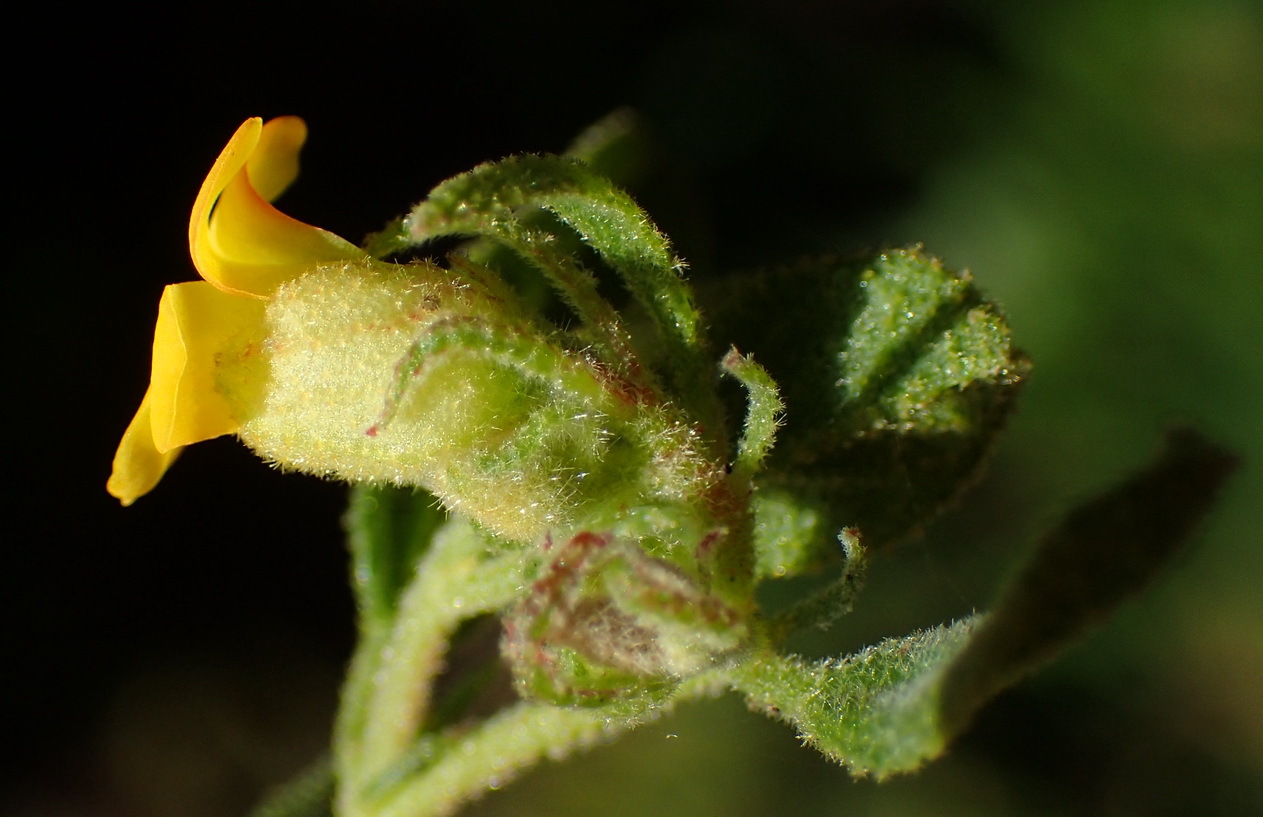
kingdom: Plantae
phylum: Tracheophyta
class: Magnoliopsida
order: Malvales
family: Malvaceae
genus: Hermannia
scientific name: Hermannia salviifolia
